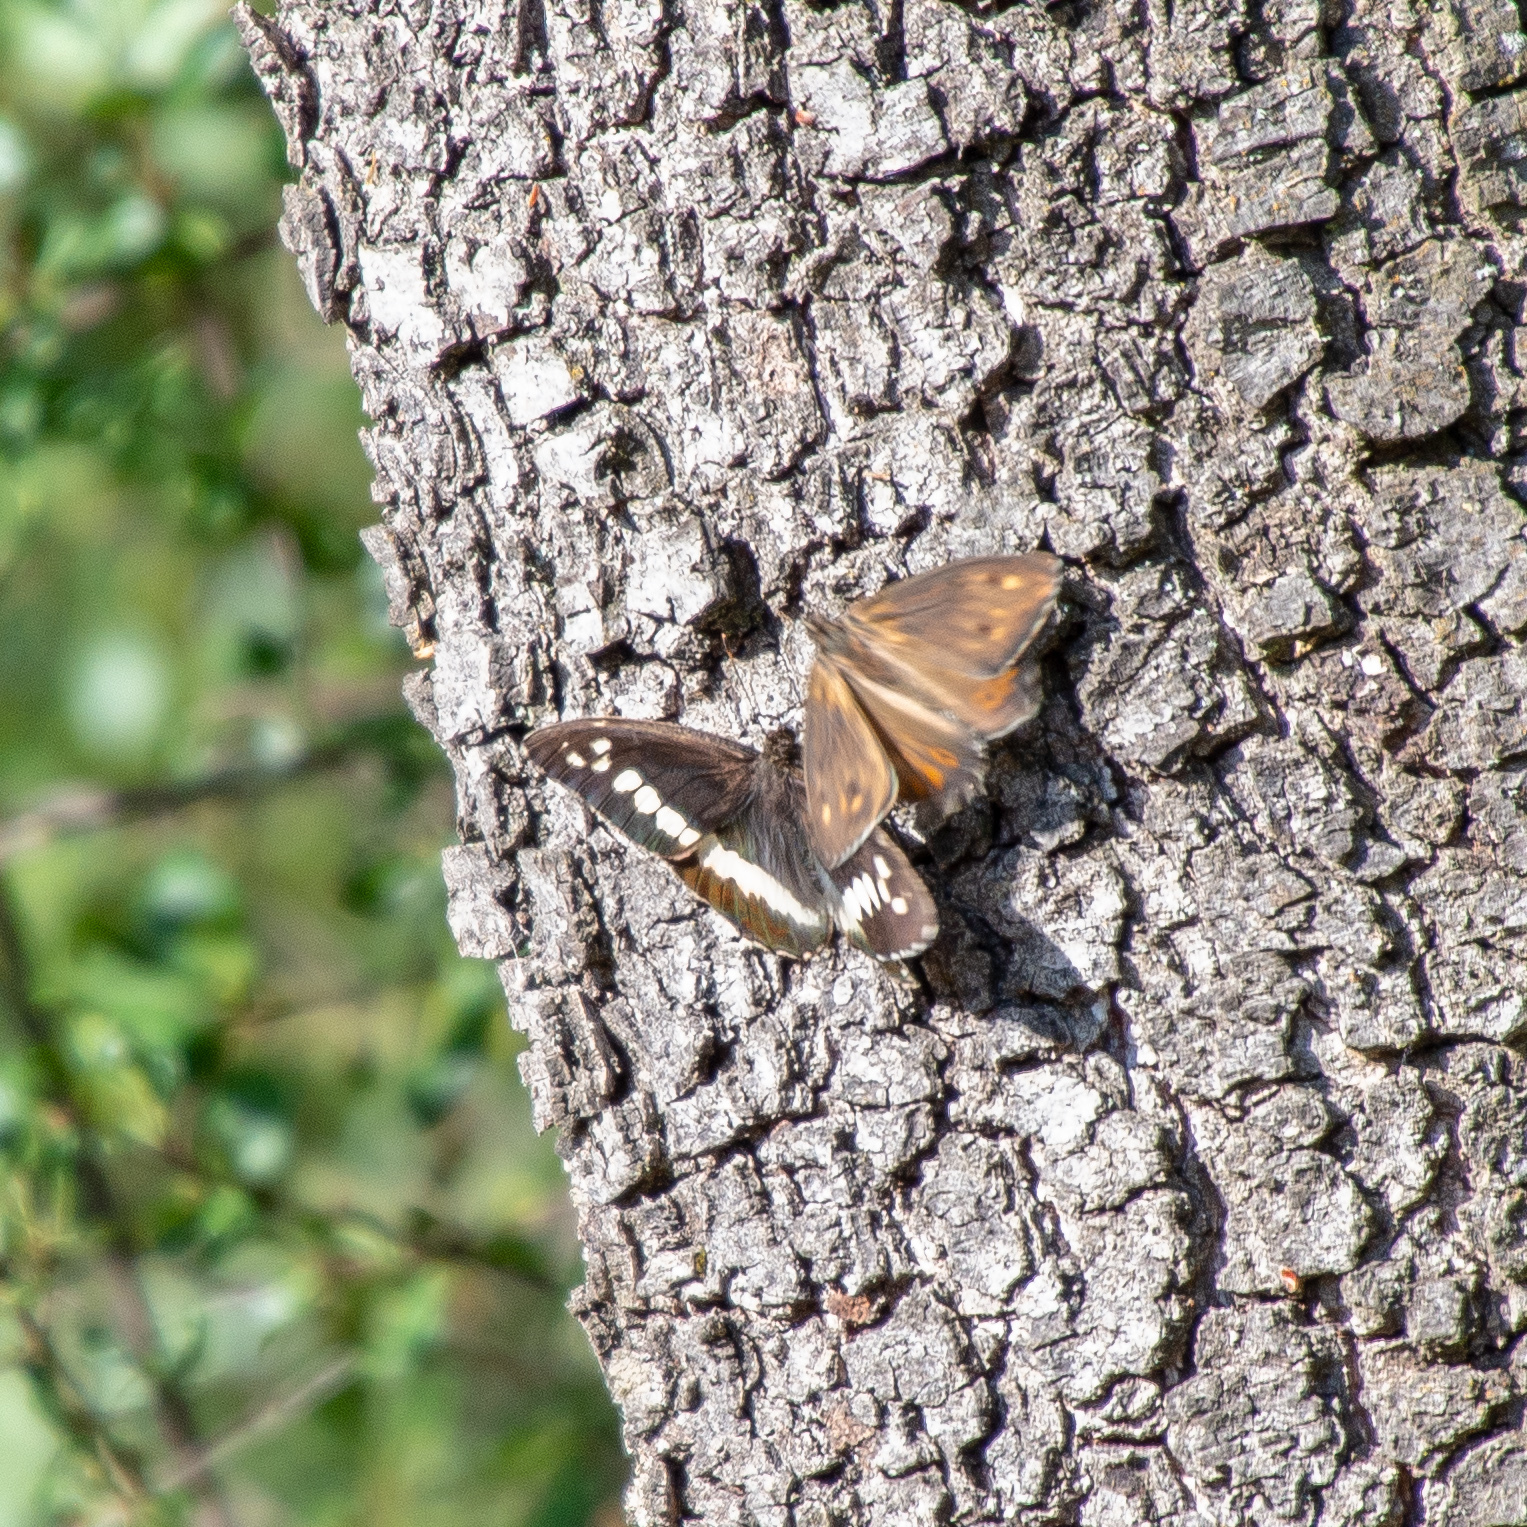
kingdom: Animalia
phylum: Arthropoda
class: Insecta
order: Lepidoptera
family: Lycaenidae
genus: Loweia
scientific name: Loweia tityrus
